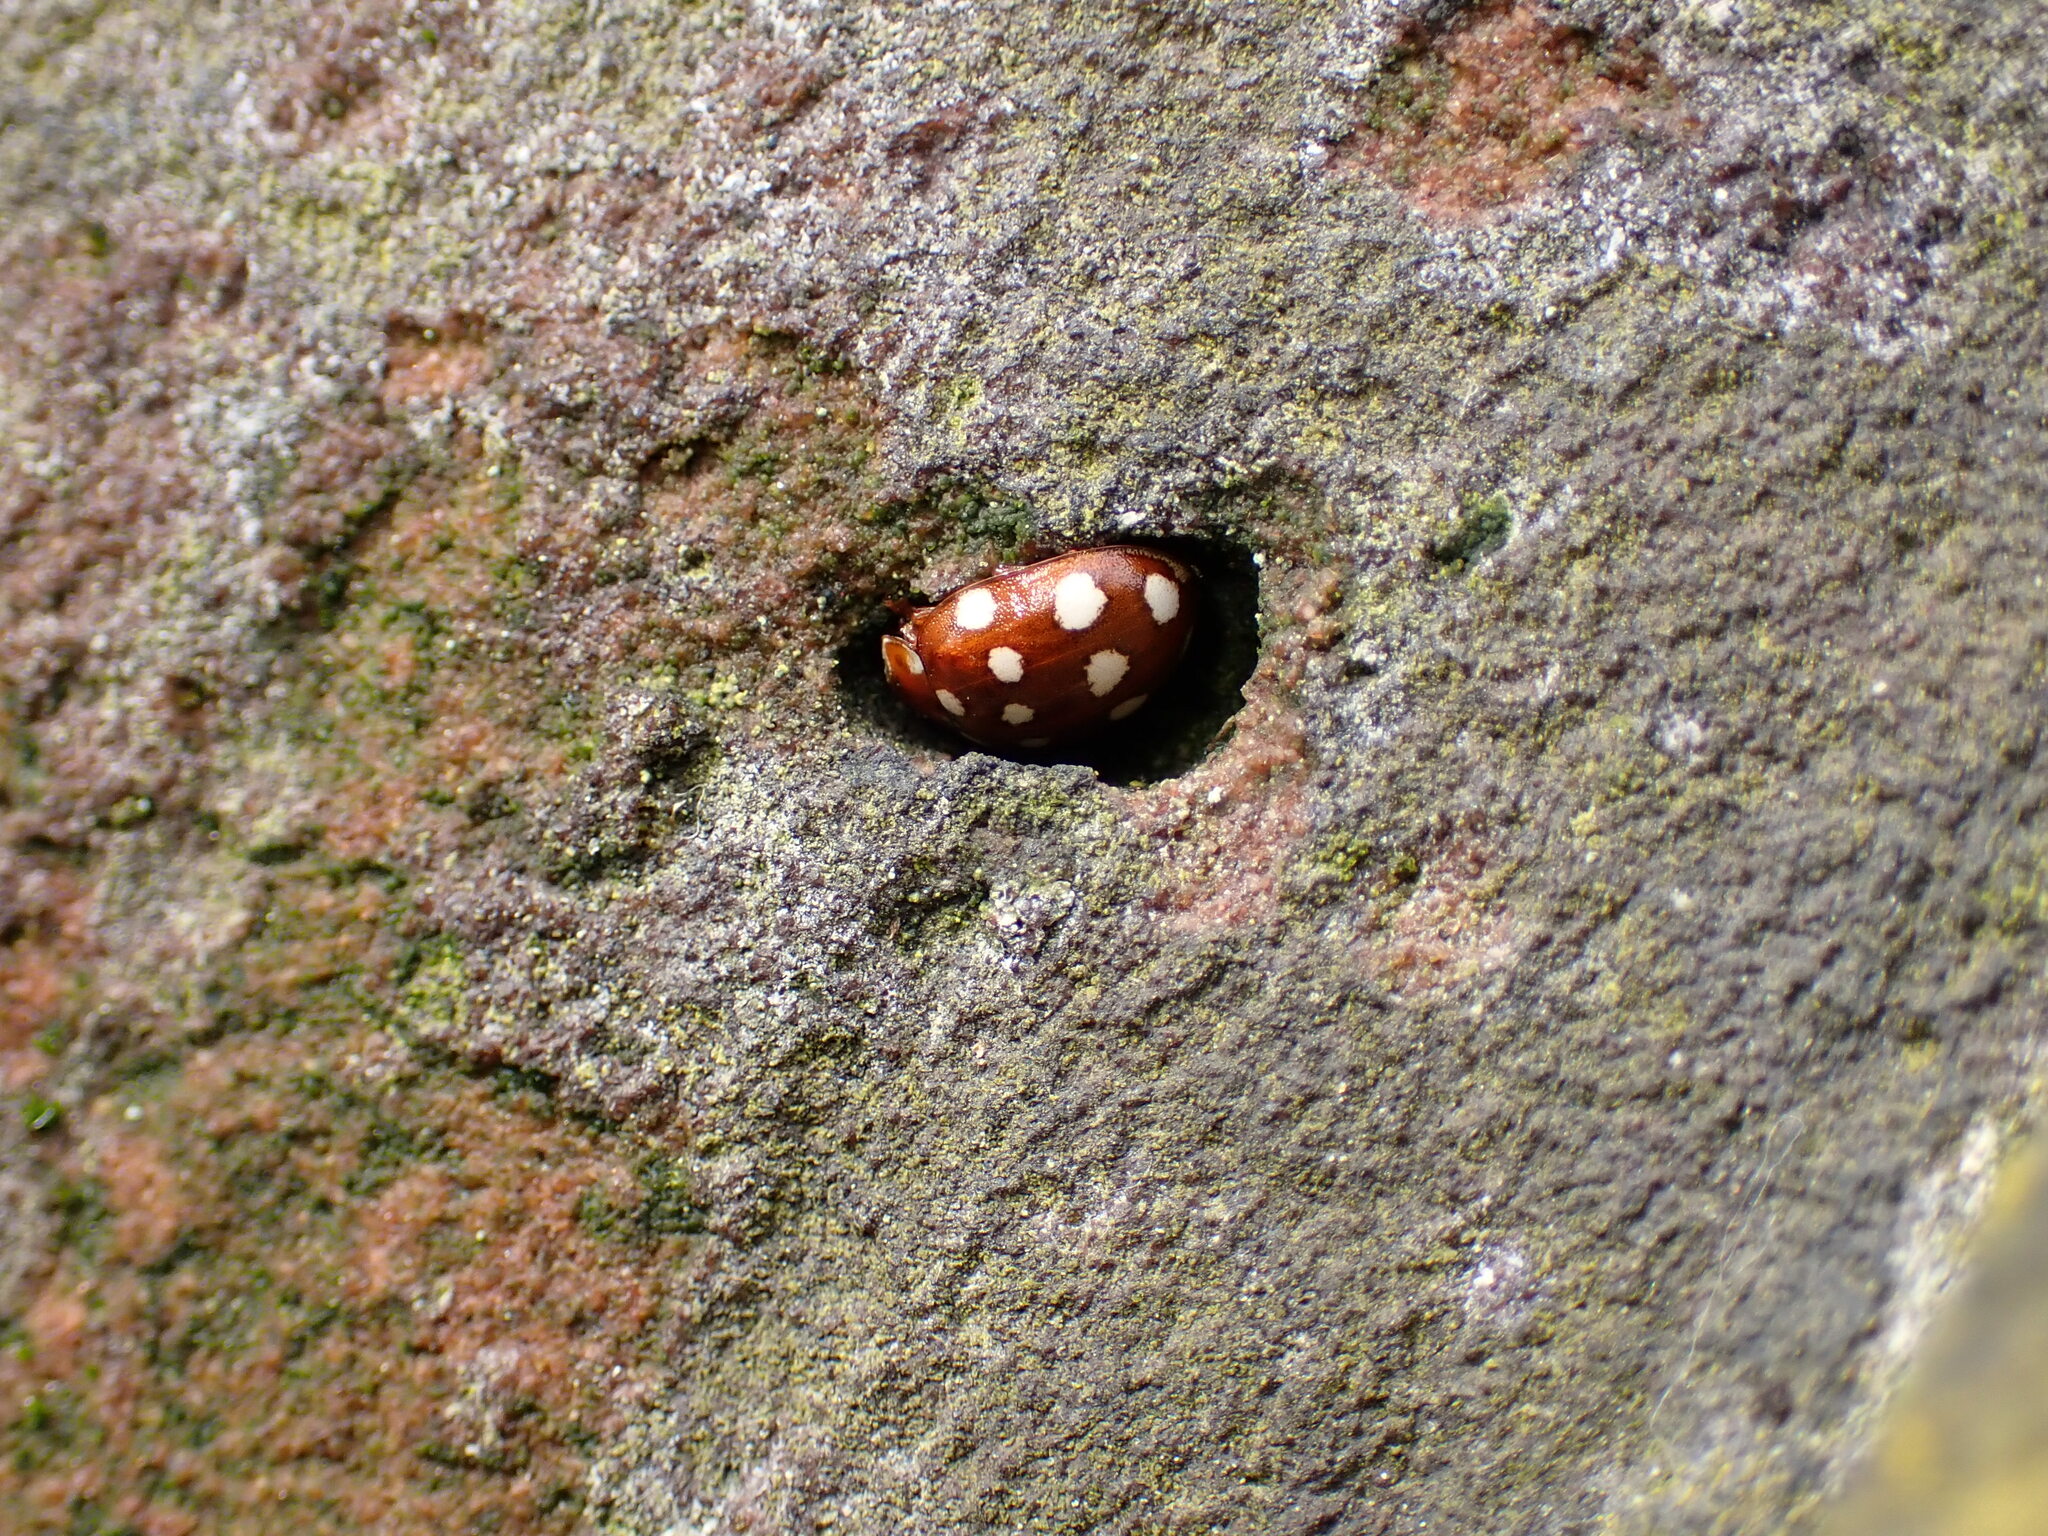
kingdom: Animalia
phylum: Arthropoda
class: Insecta
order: Coleoptera
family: Coccinellidae
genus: Calvia
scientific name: Calvia quatuordecimguttata
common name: Cream-spot ladybird
